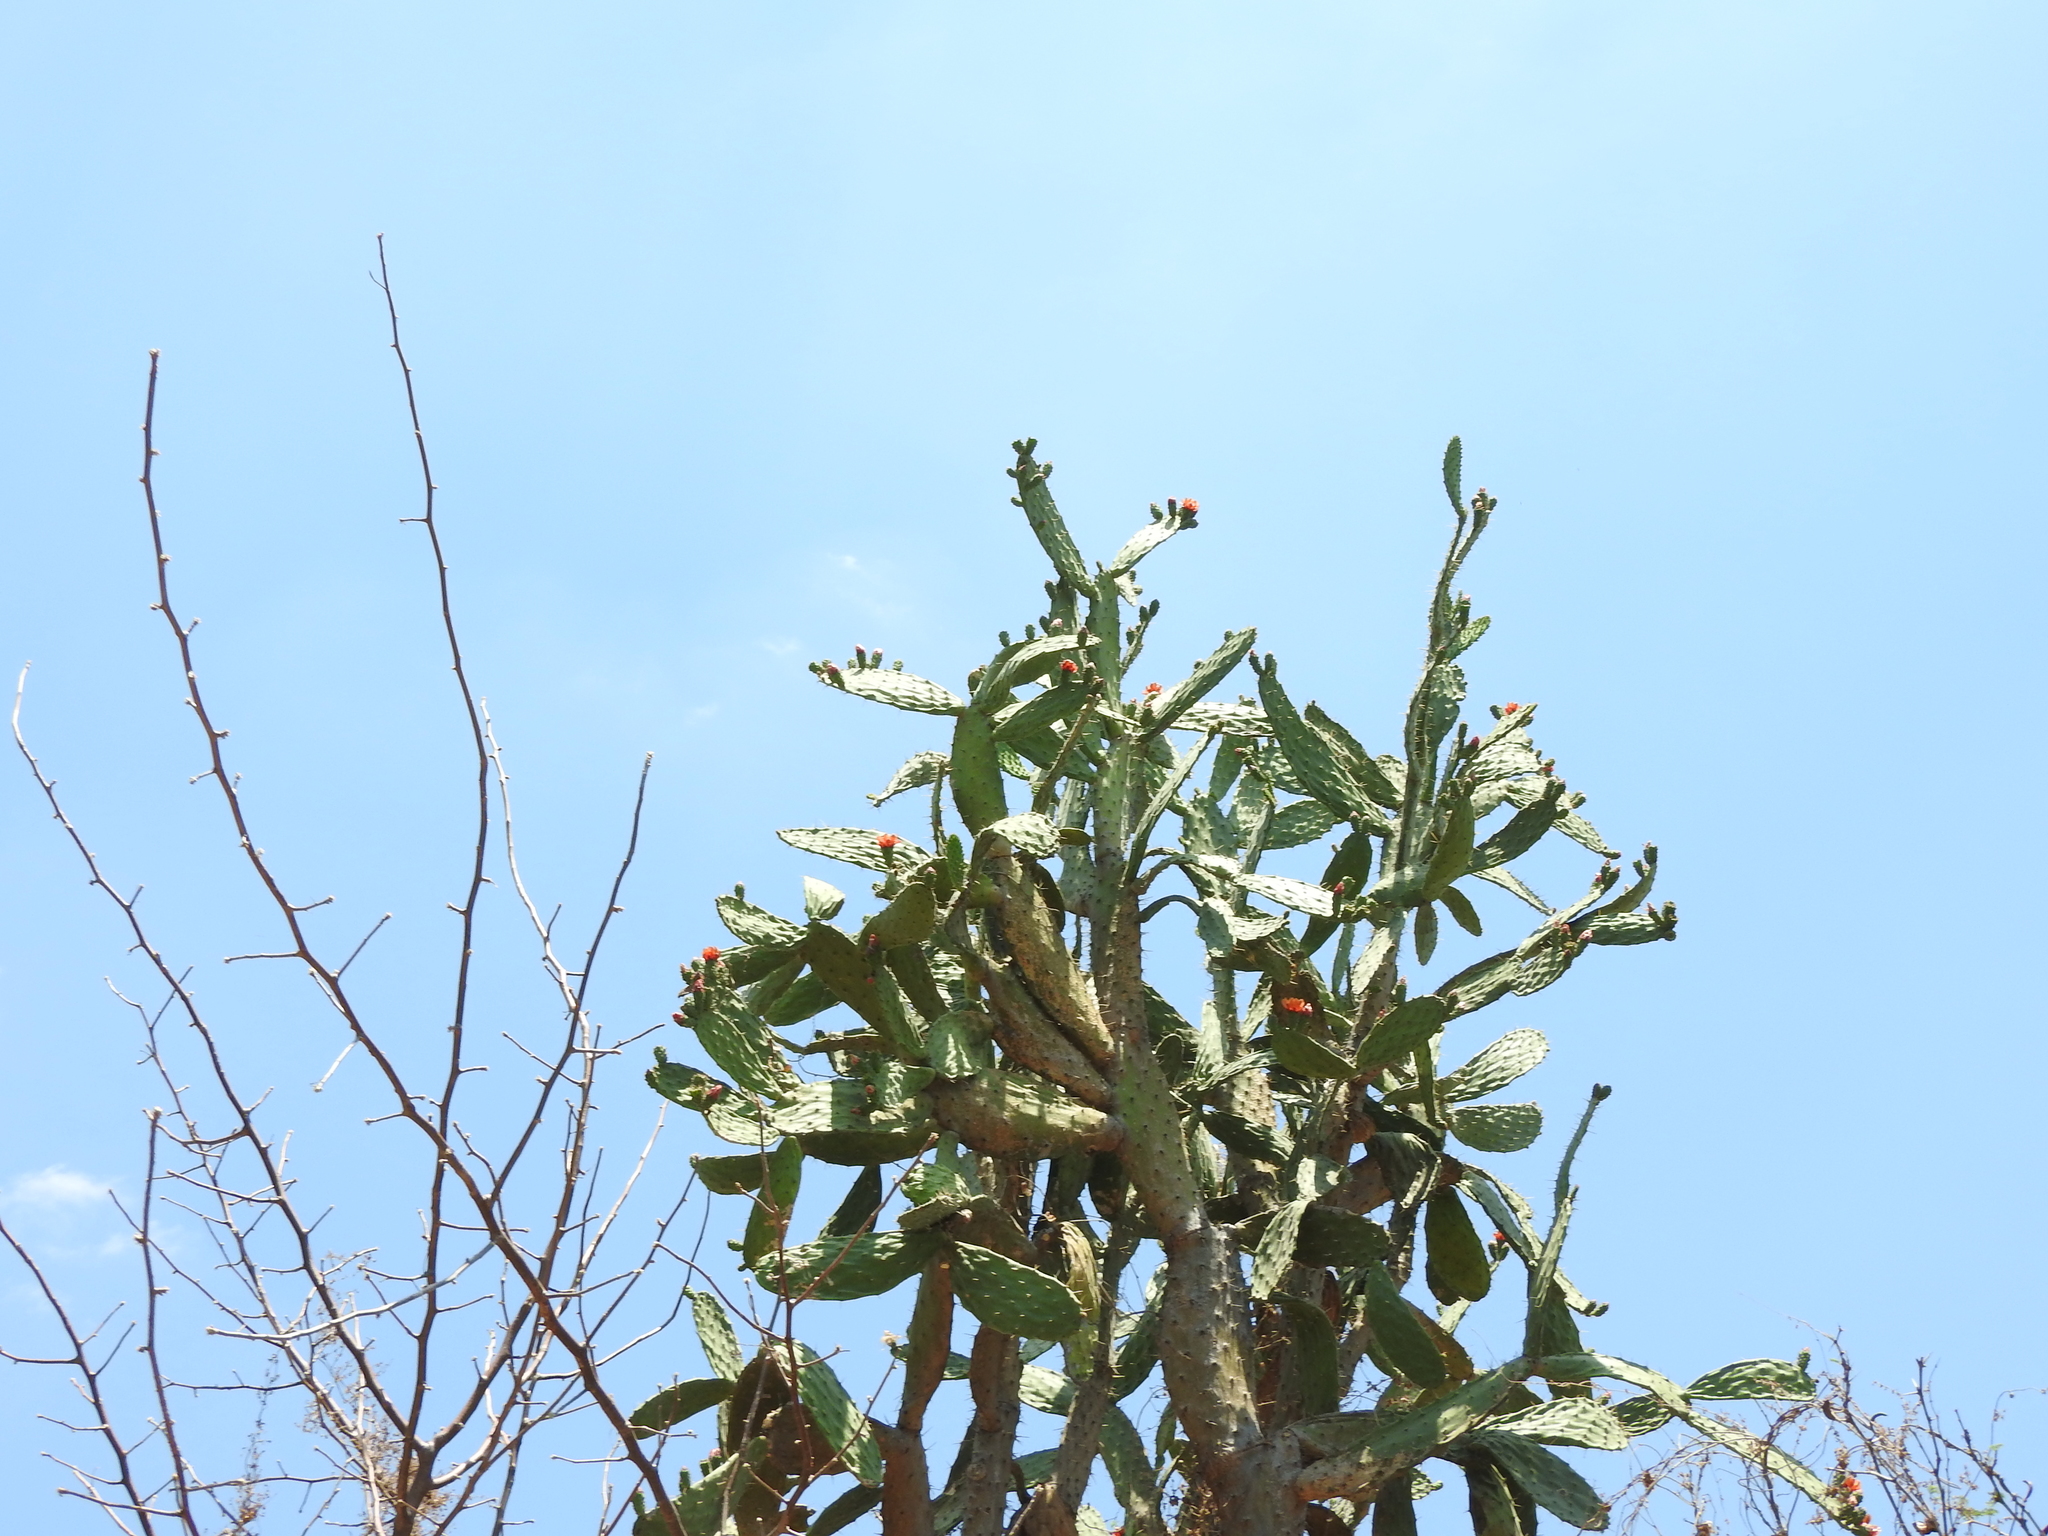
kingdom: Plantae
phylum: Tracheophyta
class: Magnoliopsida
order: Caryophyllales
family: Cactaceae
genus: Opuntia
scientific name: Opuntia jaliscana
